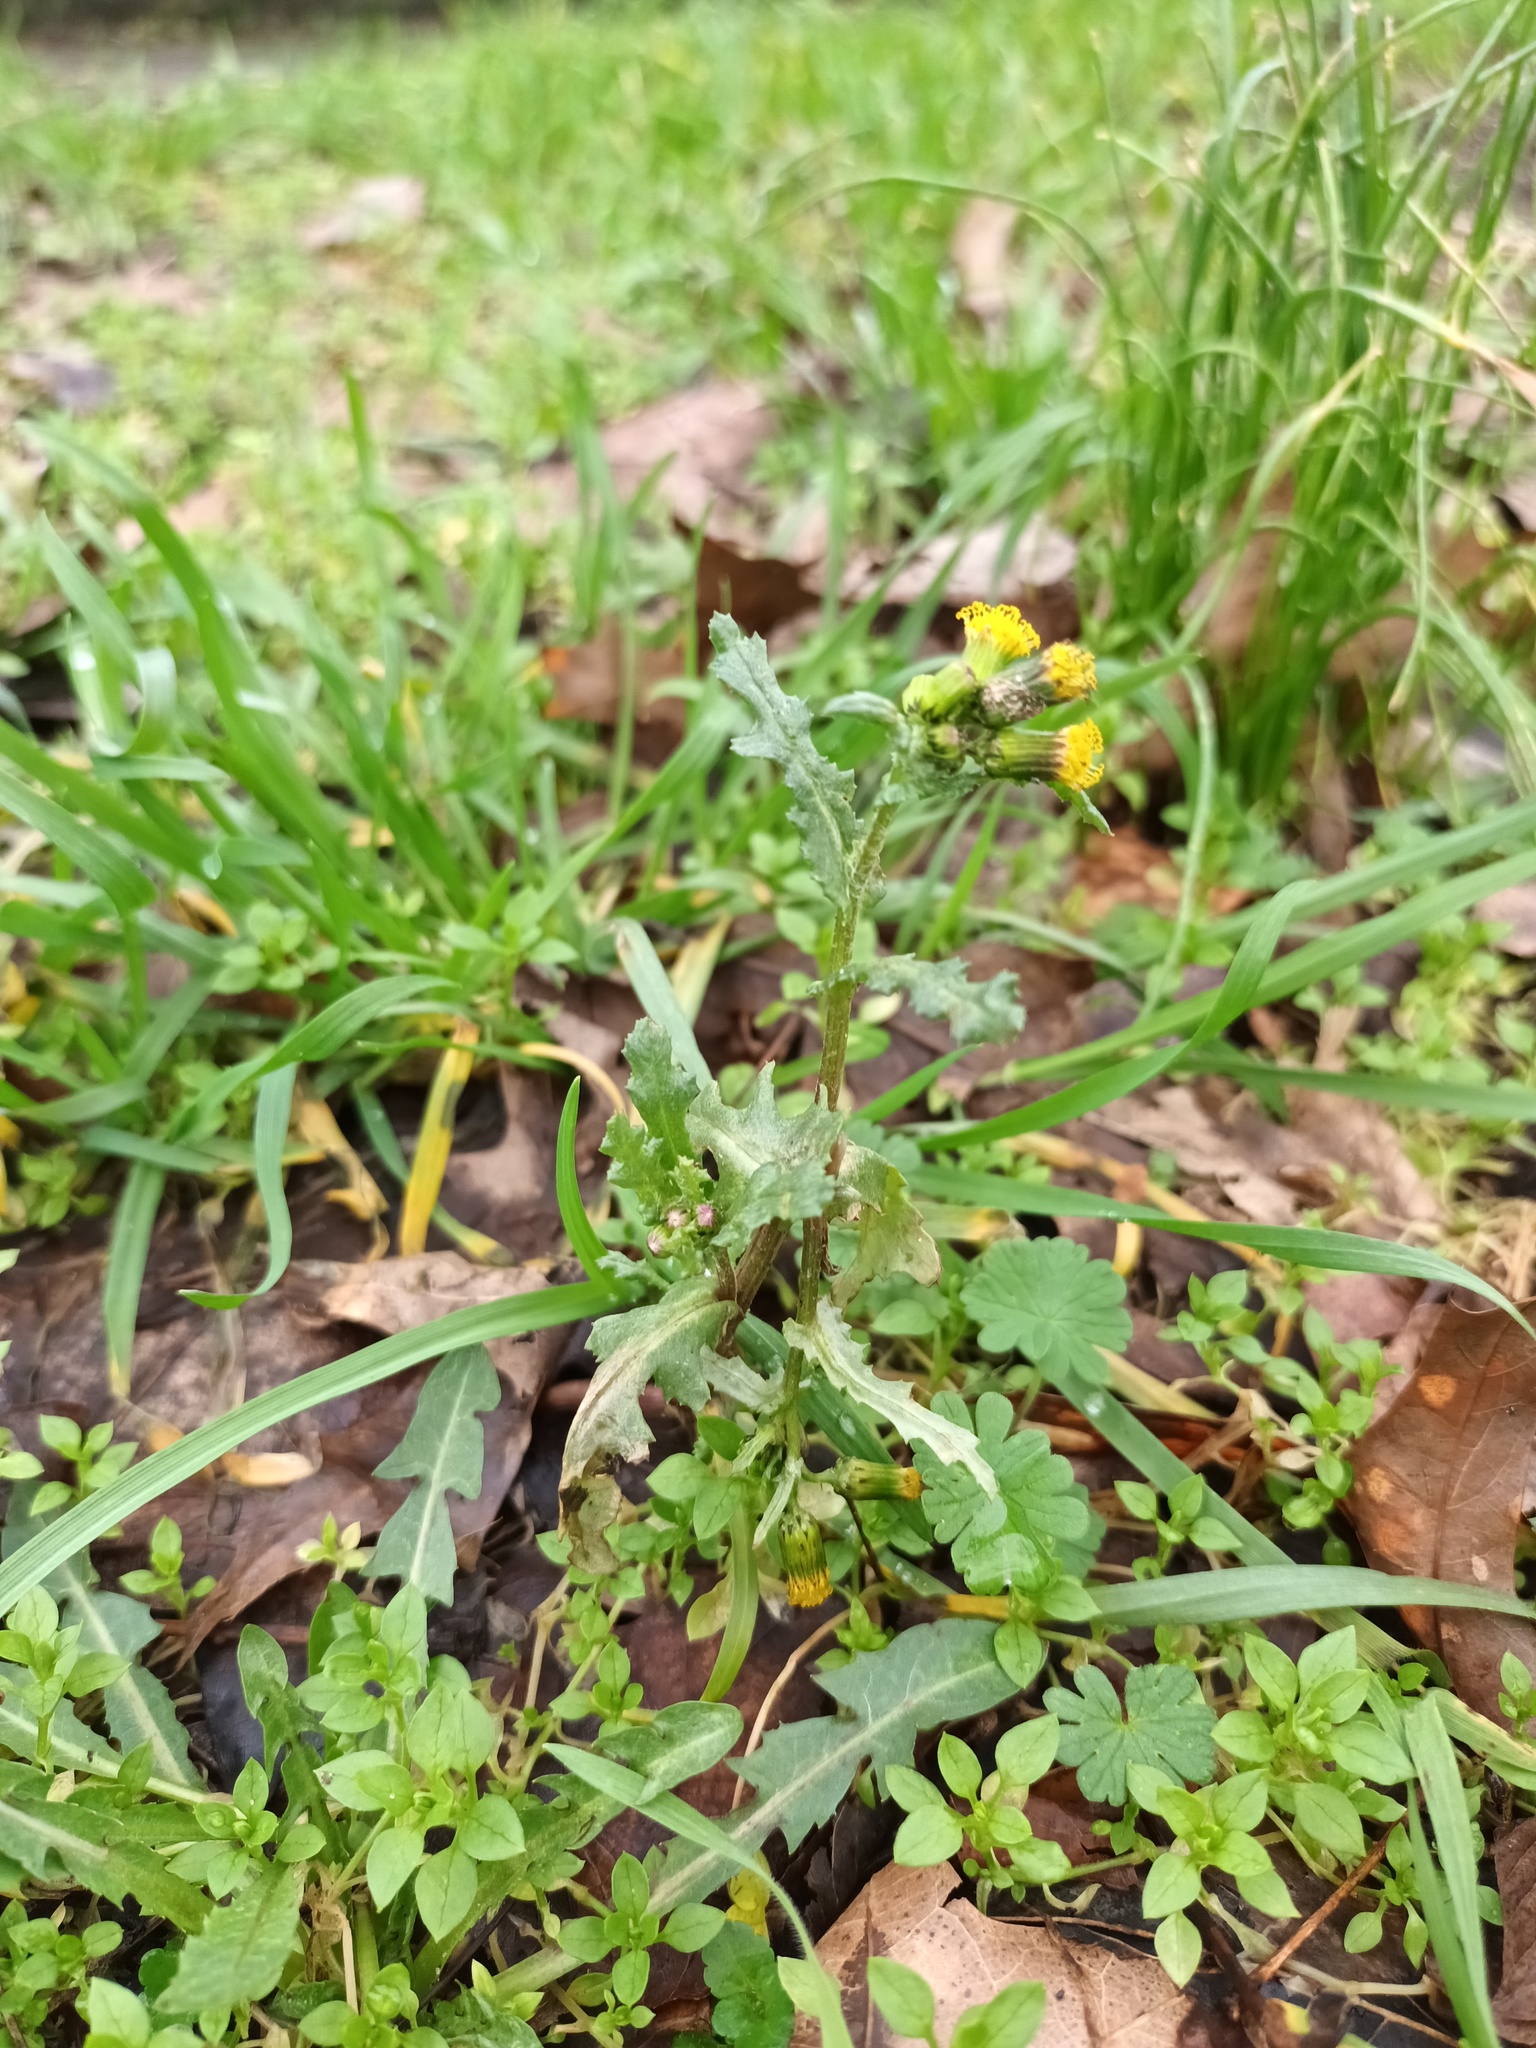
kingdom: Plantae
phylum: Tracheophyta
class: Magnoliopsida
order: Asterales
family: Asteraceae
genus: Senecio
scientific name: Senecio vulgaris
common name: Old-man-in-the-spring
